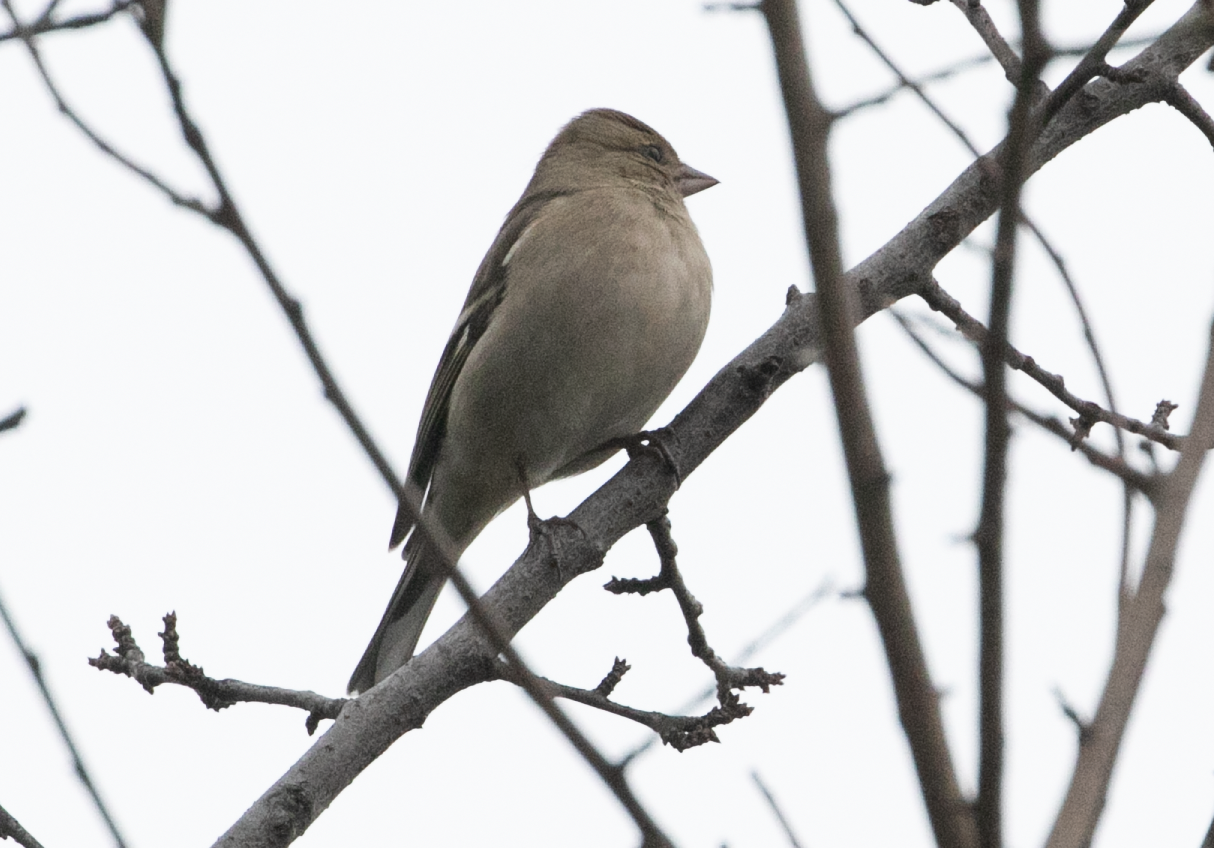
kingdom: Animalia
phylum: Chordata
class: Aves
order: Passeriformes
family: Fringillidae
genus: Fringilla
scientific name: Fringilla coelebs
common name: Common chaffinch
